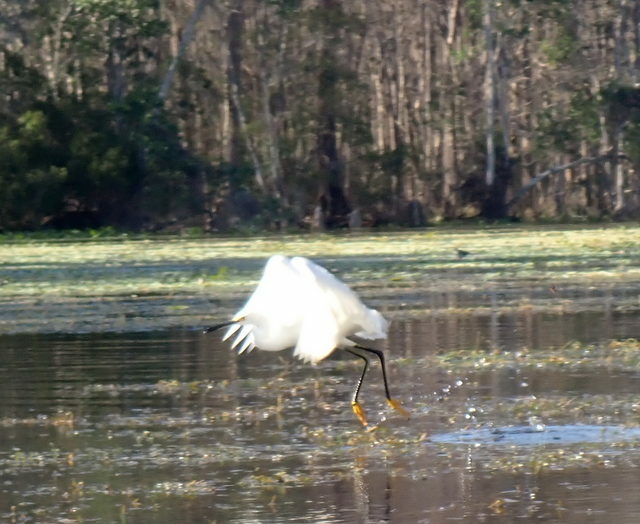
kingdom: Animalia
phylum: Chordata
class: Aves
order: Pelecaniformes
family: Ardeidae
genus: Egretta
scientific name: Egretta thula
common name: Snowy egret
